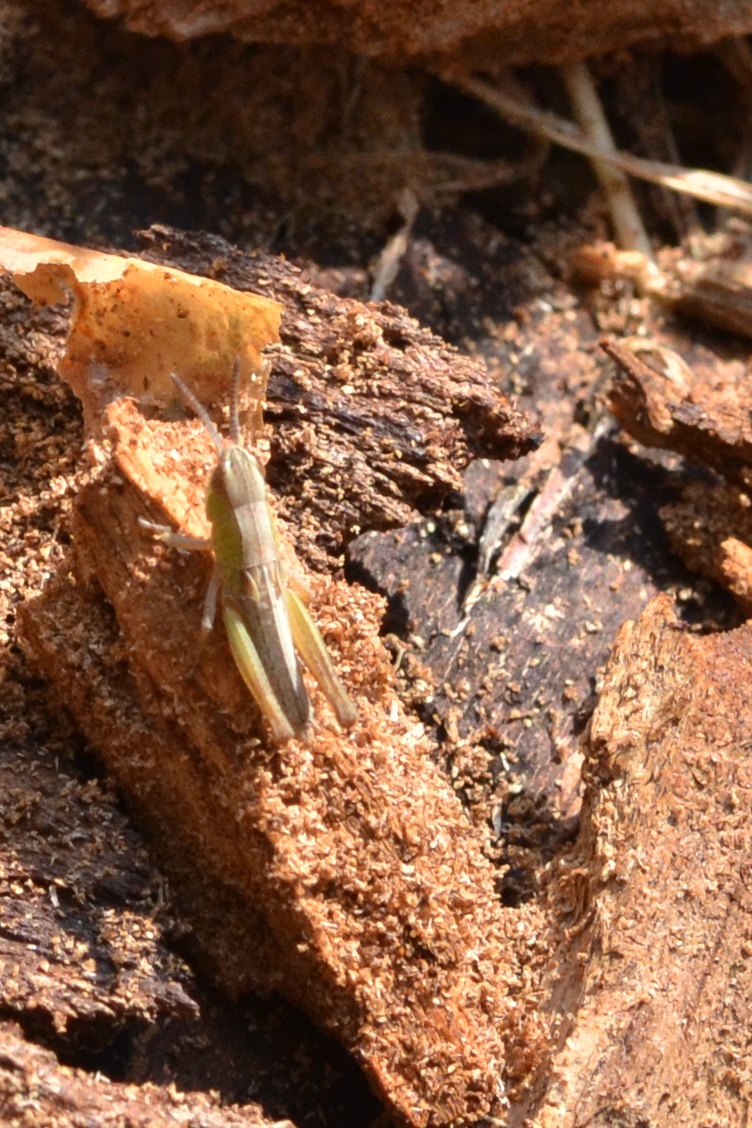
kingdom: Animalia
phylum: Arthropoda
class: Insecta
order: Orthoptera
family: Acrididae
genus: Pseudochorthippus
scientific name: Pseudochorthippus parallelus
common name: Meadow grasshopper
